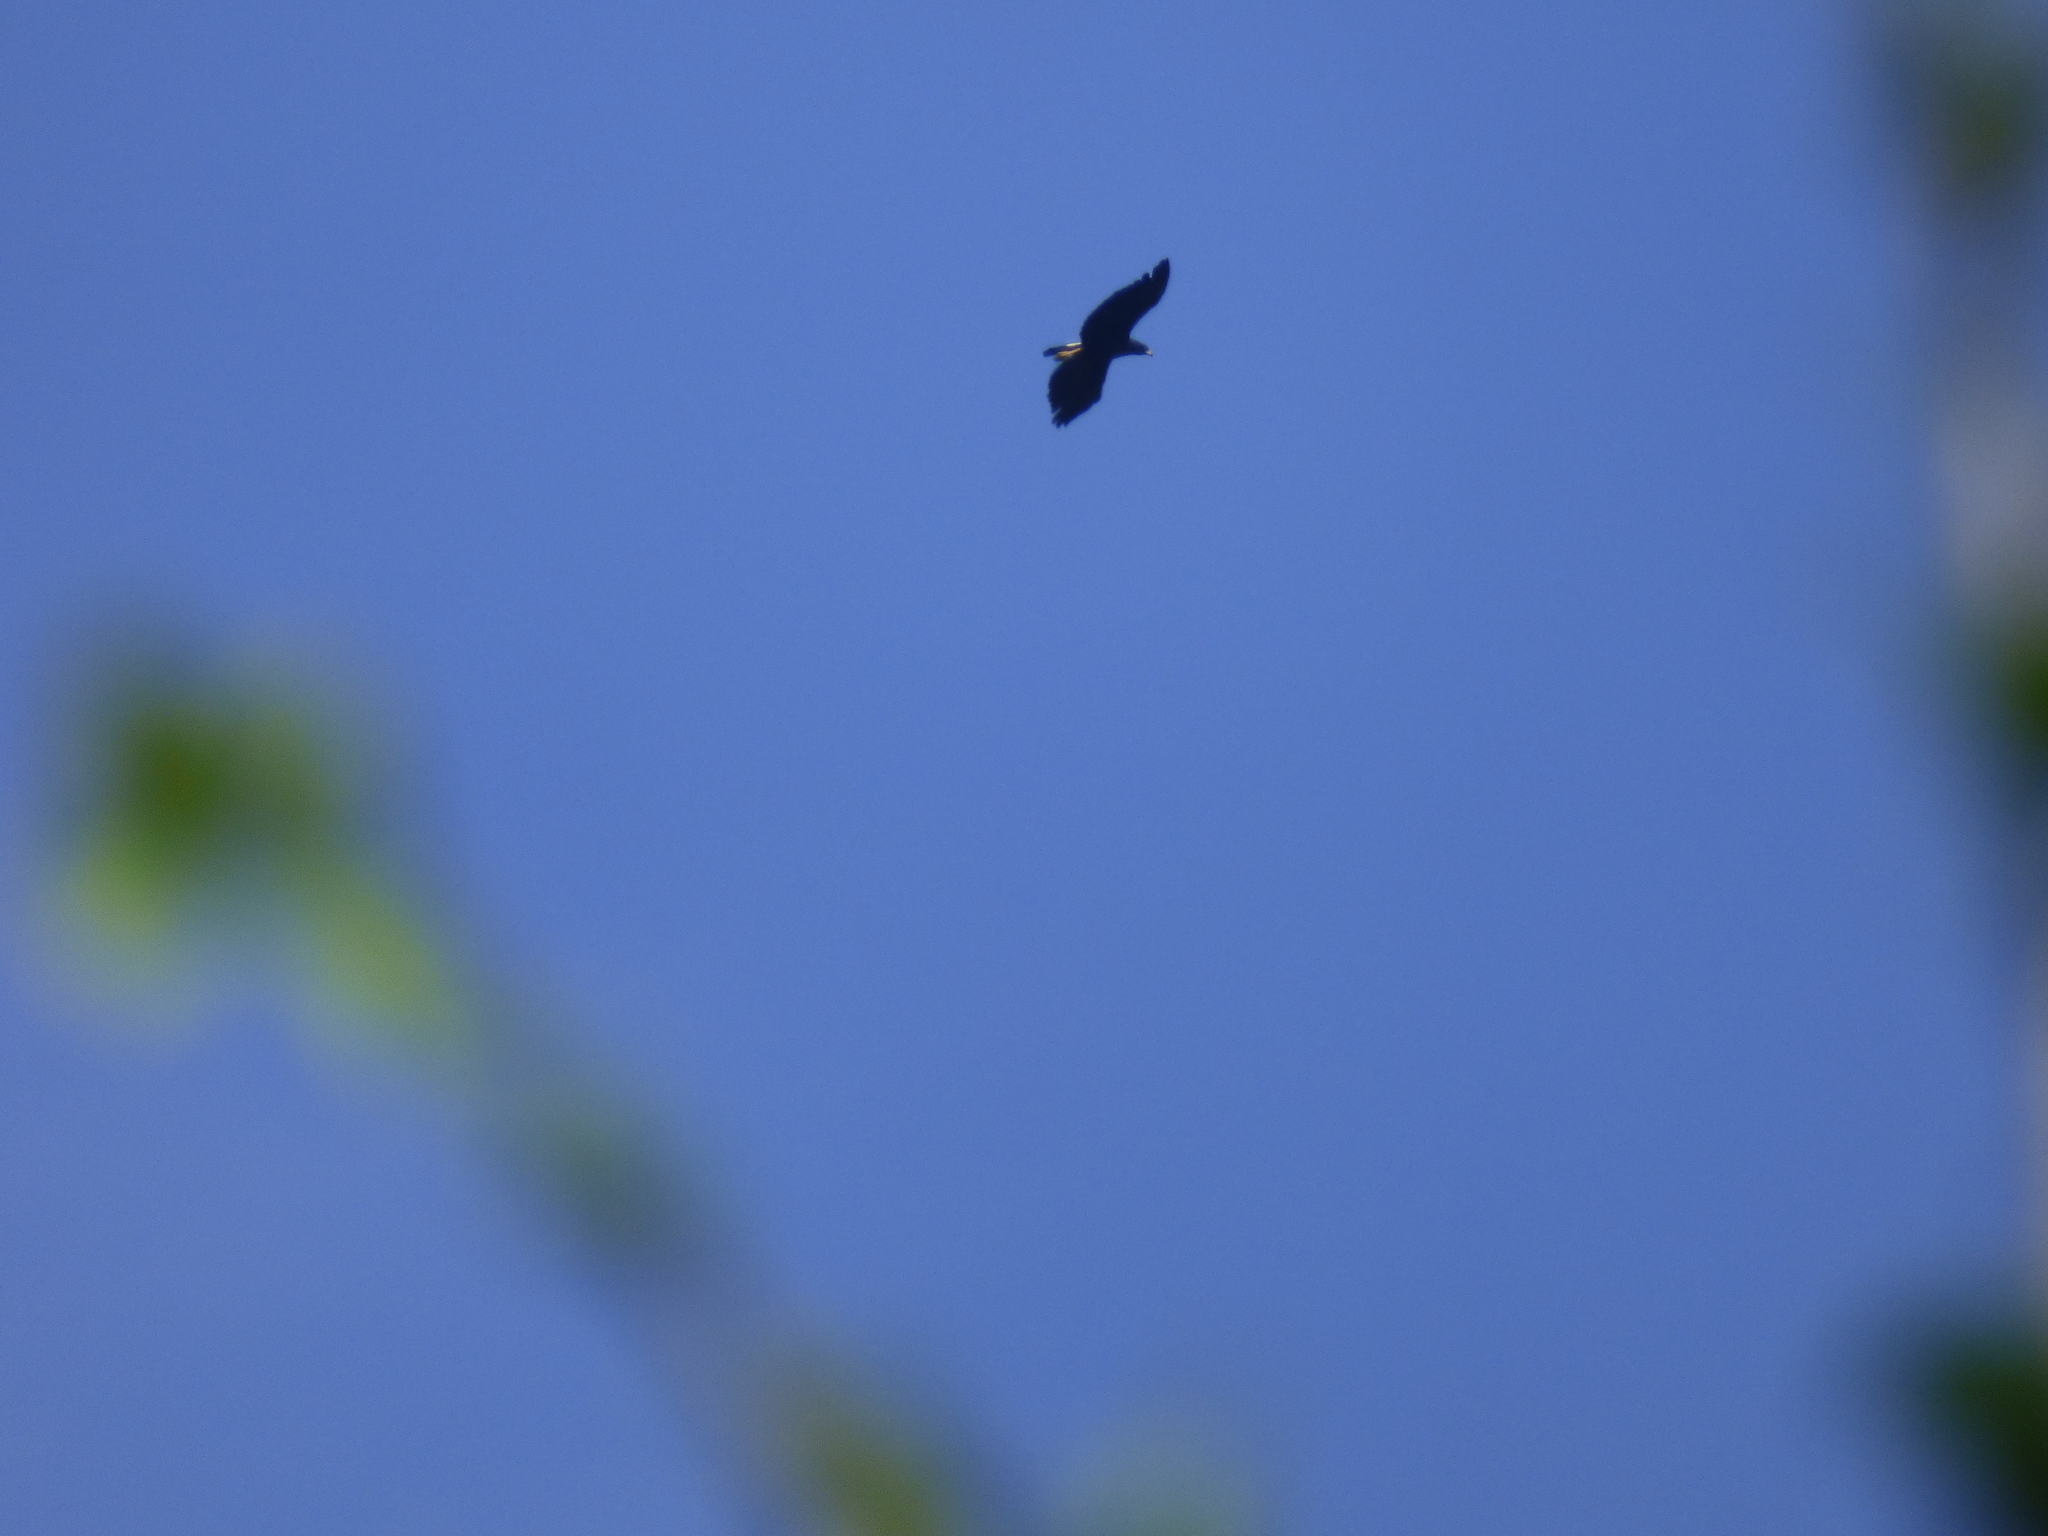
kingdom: Animalia
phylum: Chordata
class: Aves
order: Accipitriformes
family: Accipitridae
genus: Buteogallus
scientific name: Buteogallus urubitinga
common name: Great black hawk
